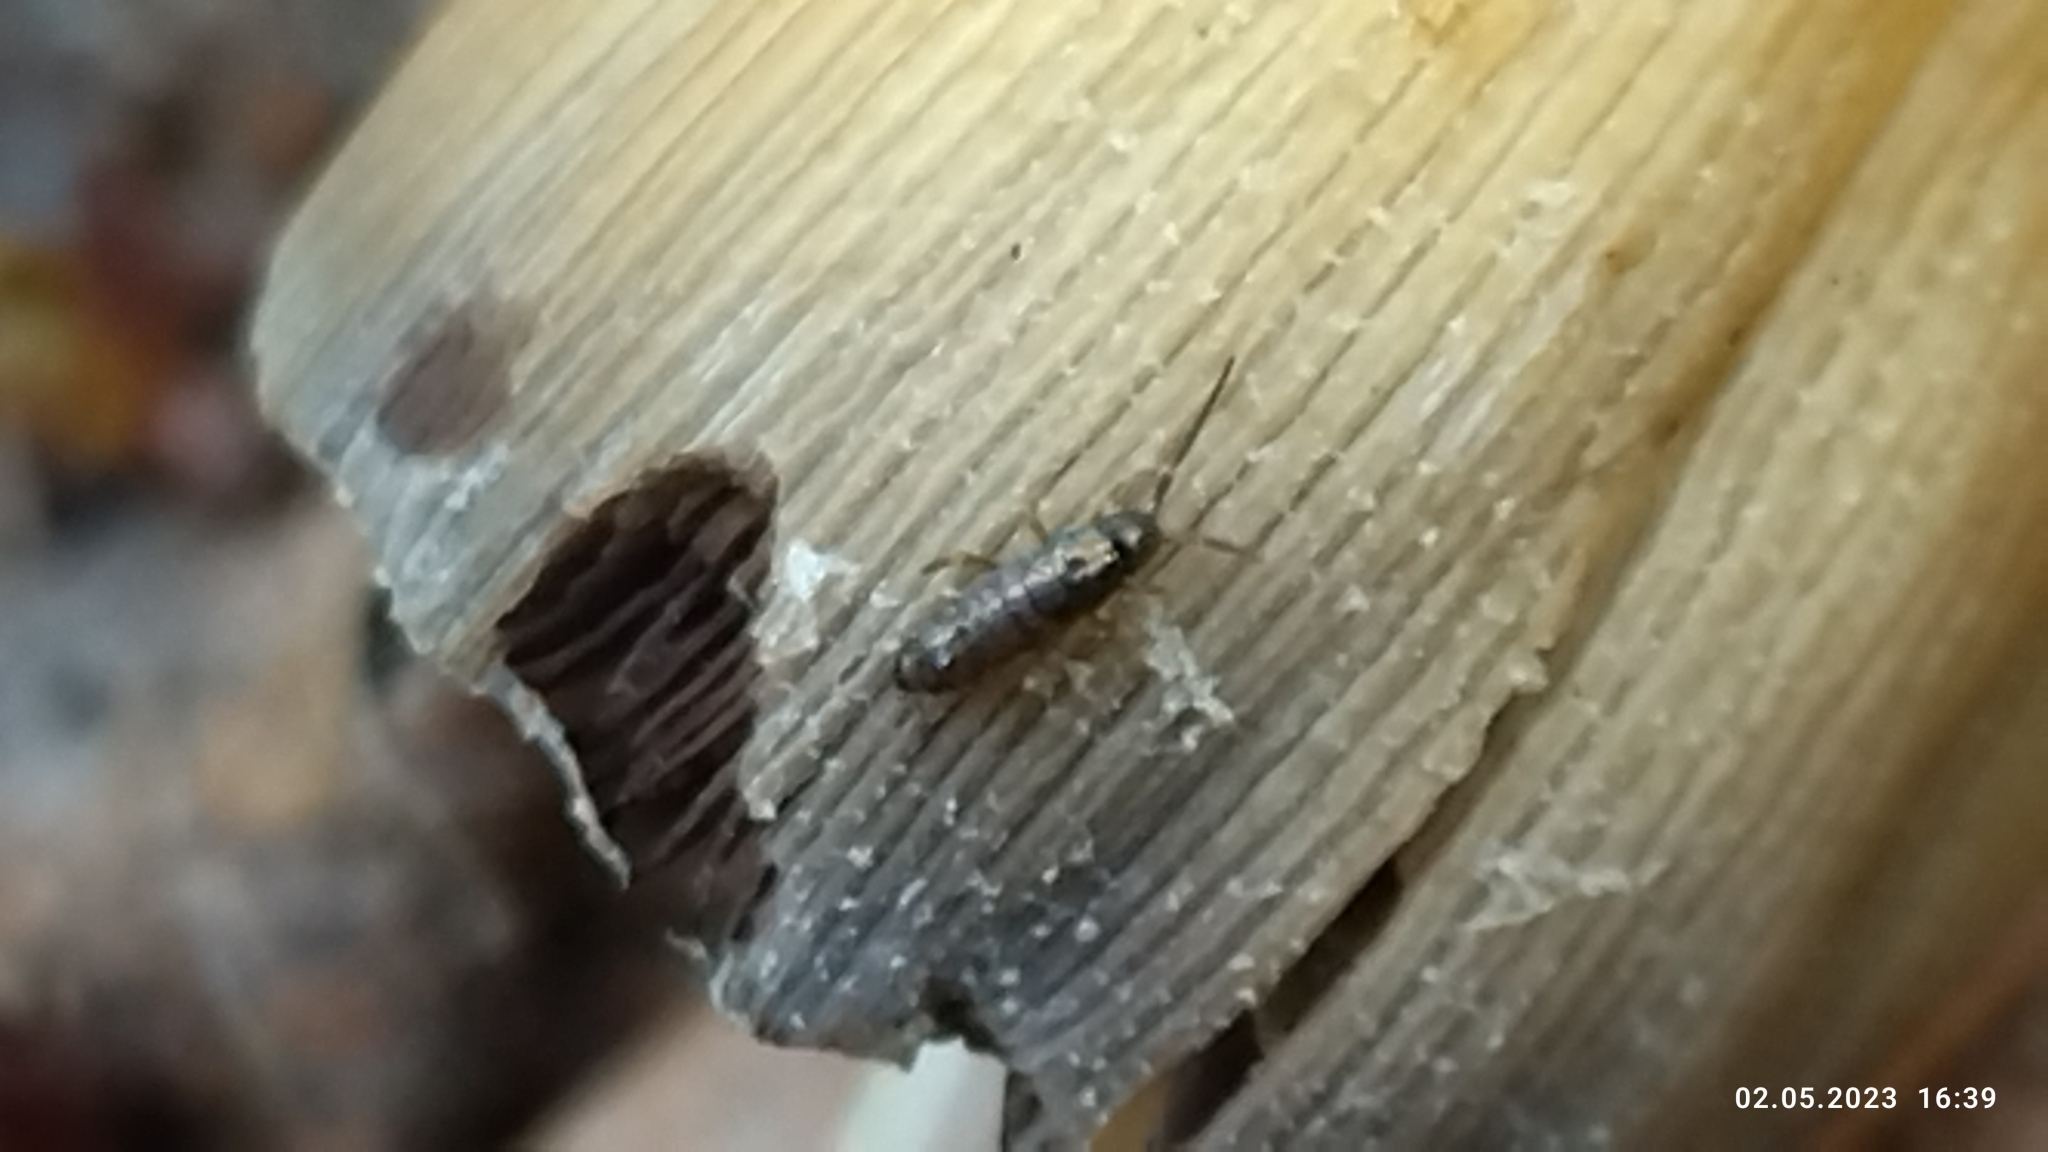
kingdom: Fungi
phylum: Basidiomycota
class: Agaricomycetes
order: Agaricales
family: Psathyrellaceae
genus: Coprinellus
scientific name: Coprinellus micaceus
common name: Glistening ink-cap
